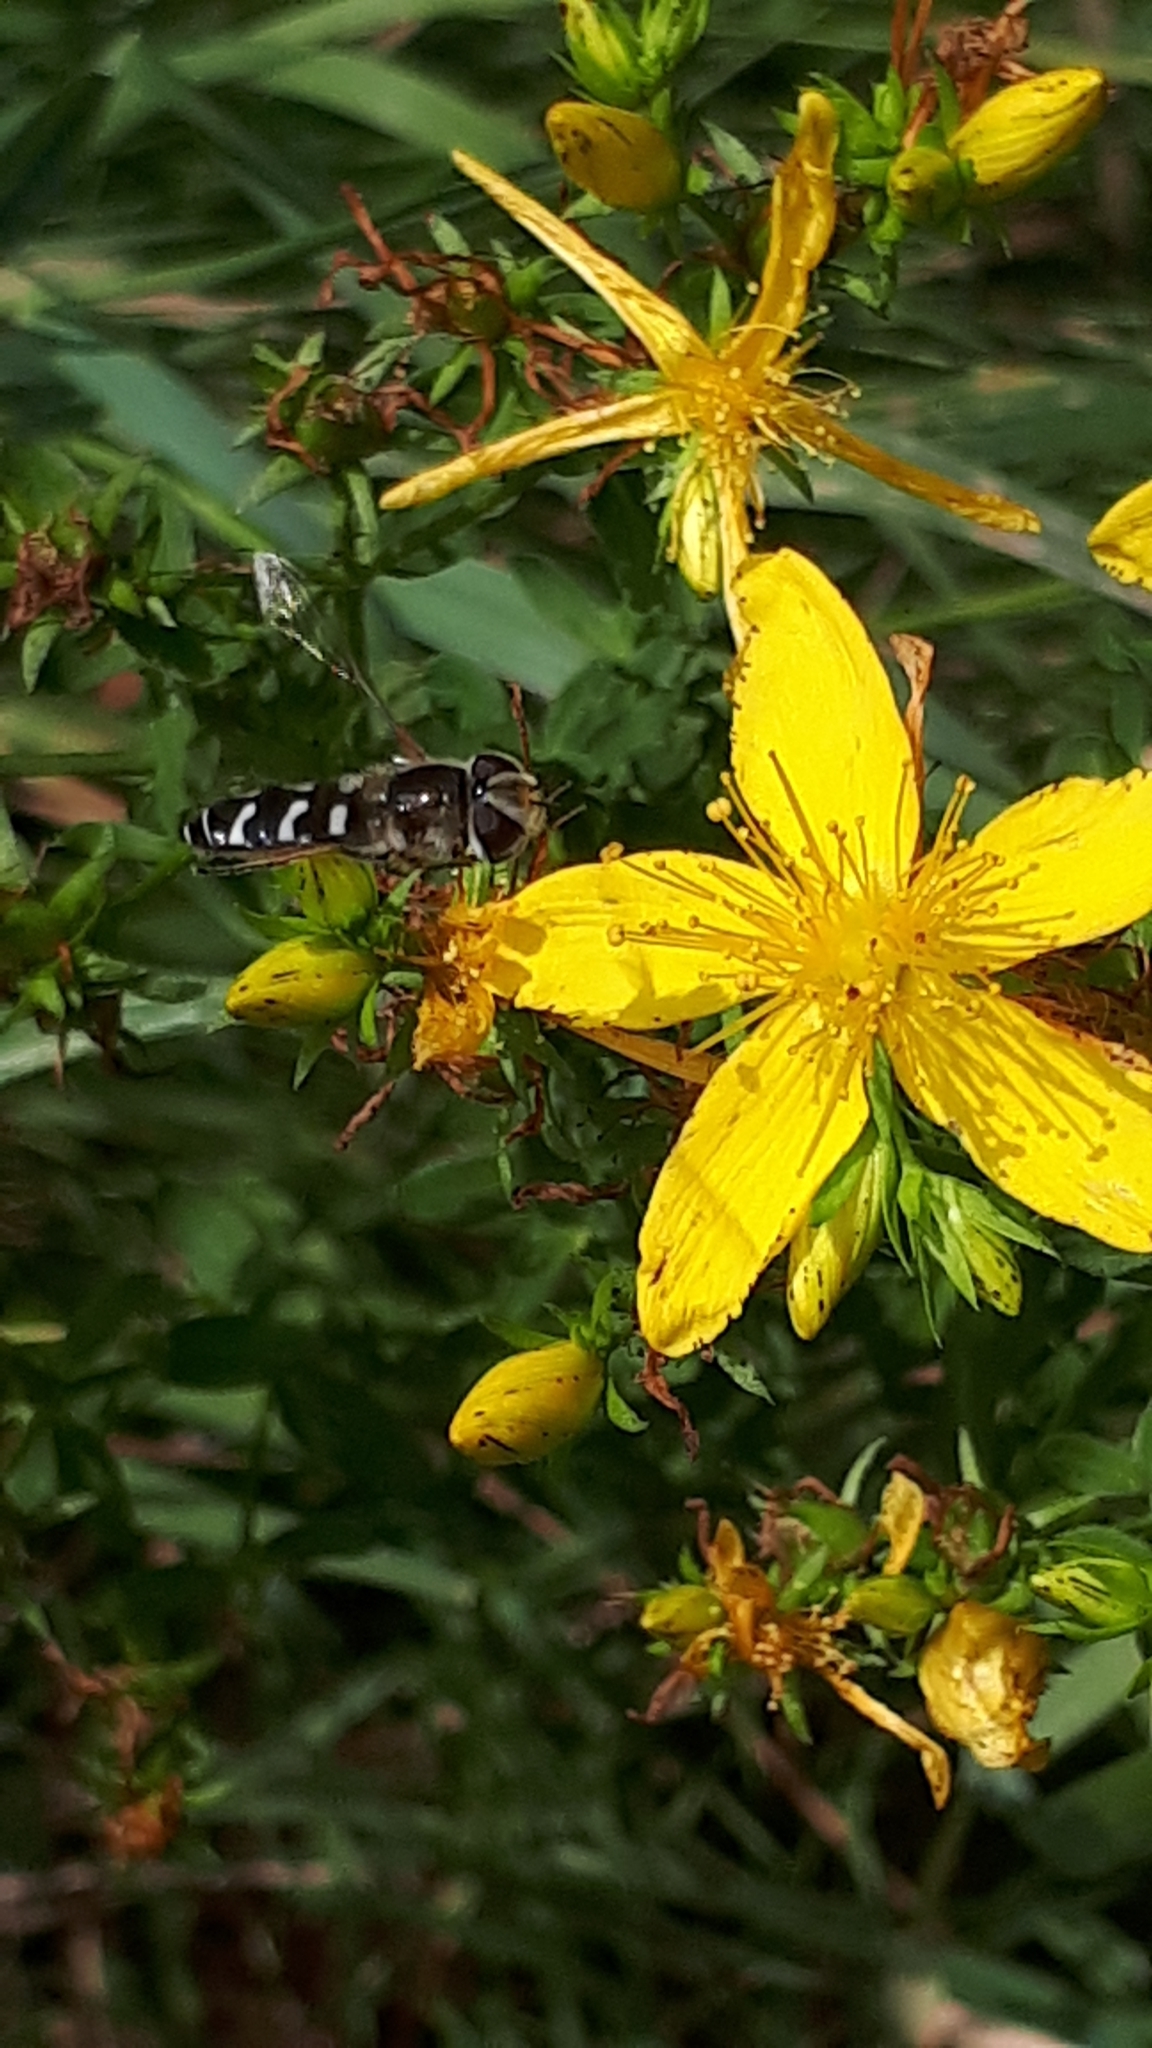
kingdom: Animalia
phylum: Arthropoda
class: Insecta
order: Diptera
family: Syrphidae
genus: Scaeva
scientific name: Scaeva pyrastri
